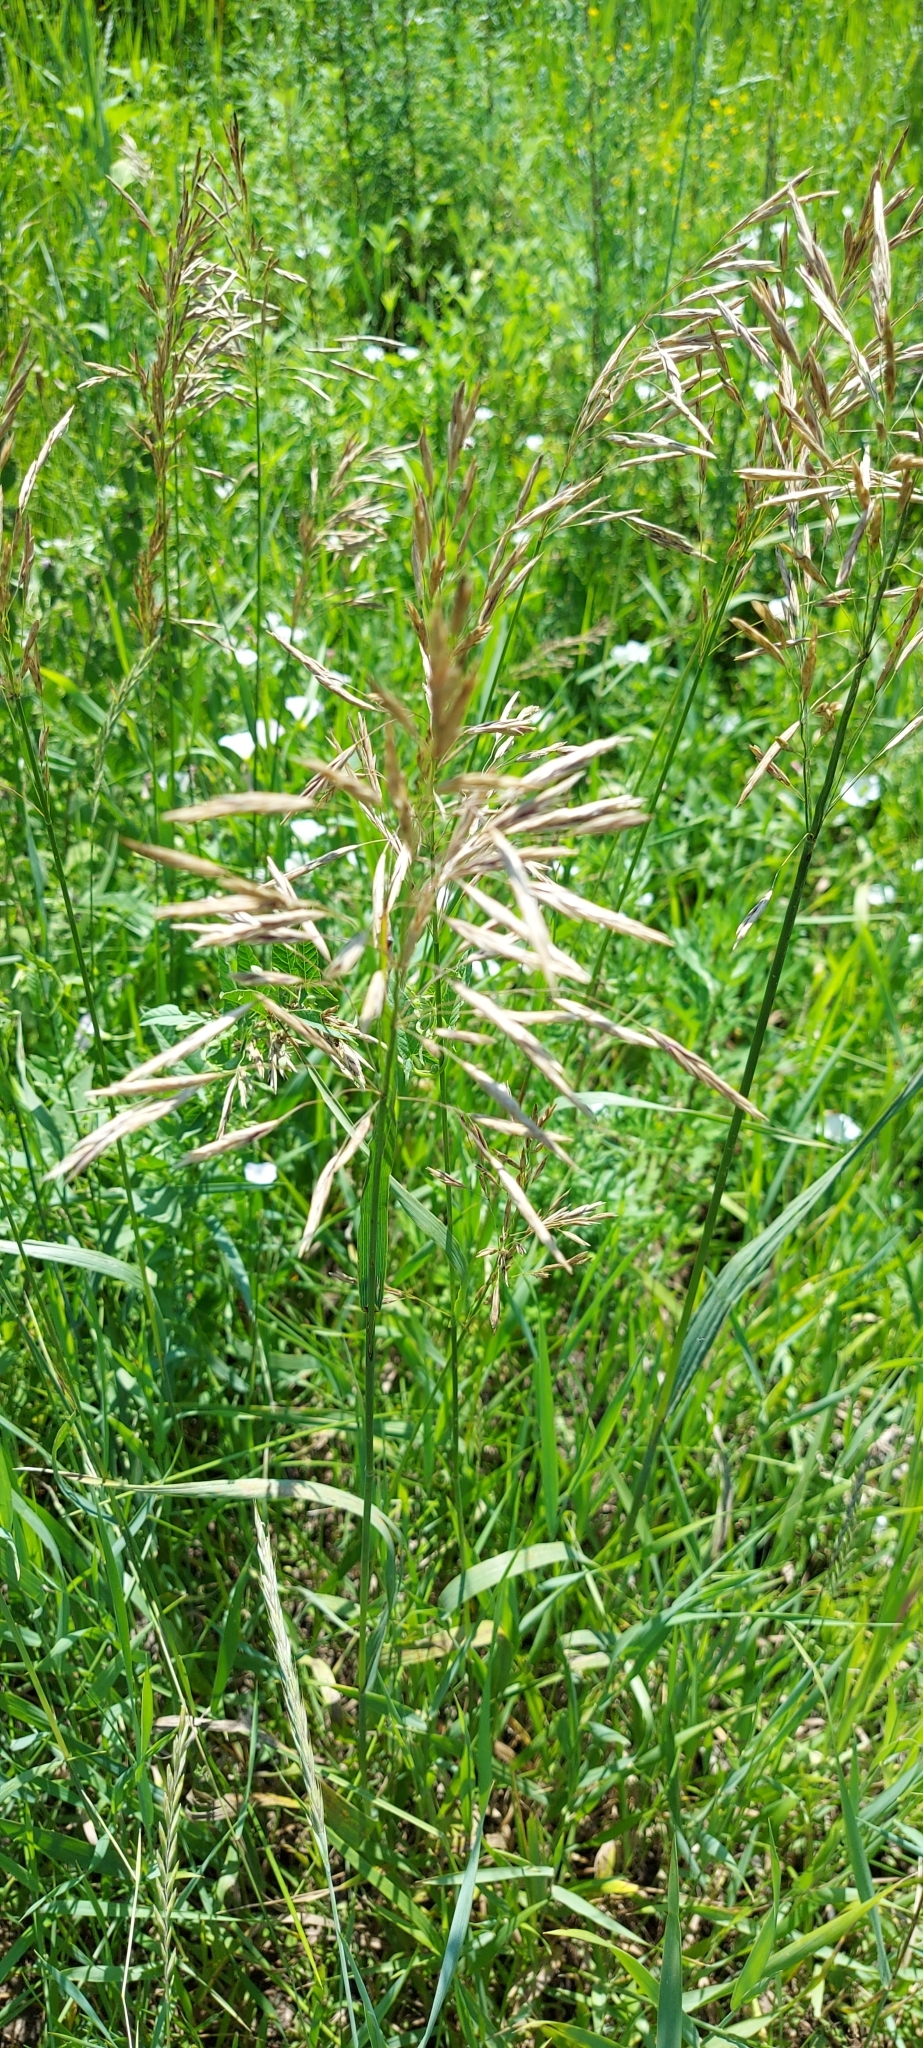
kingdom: Plantae
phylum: Tracheophyta
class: Liliopsida
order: Poales
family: Poaceae
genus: Bromus
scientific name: Bromus inermis
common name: Smooth brome
